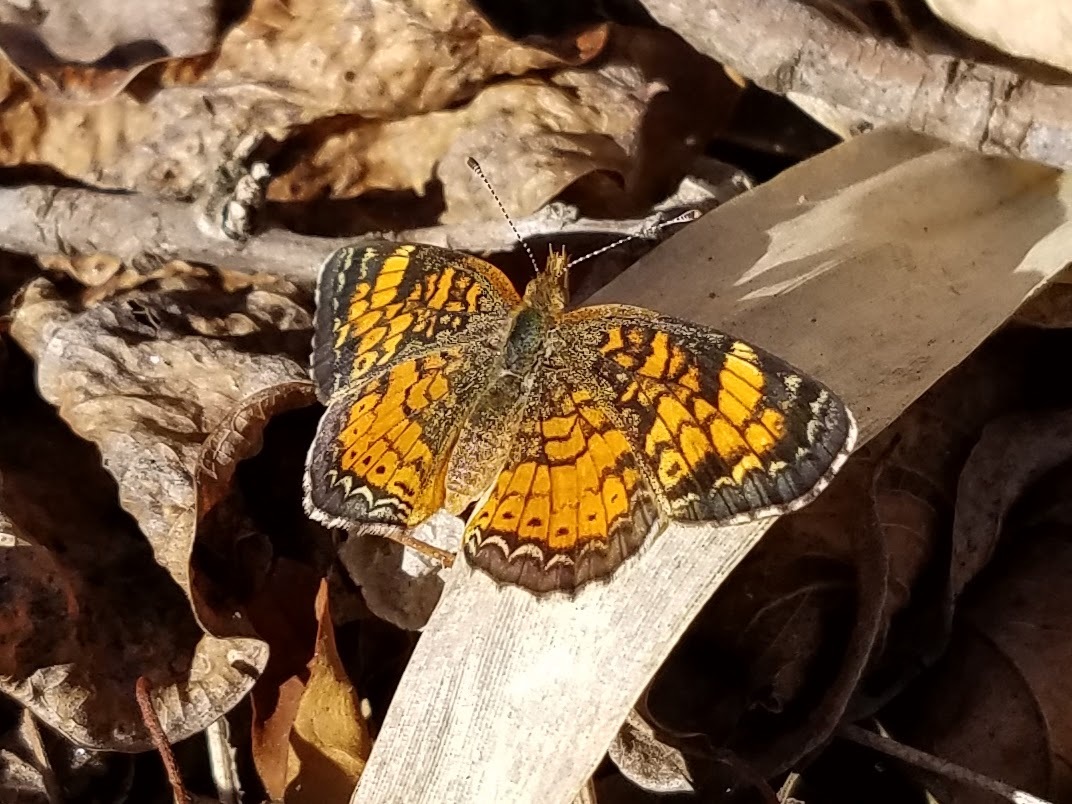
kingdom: Animalia
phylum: Arthropoda
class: Insecta
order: Lepidoptera
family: Nymphalidae
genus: Phyciodes
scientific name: Phyciodes tharos
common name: Pearl crescent
